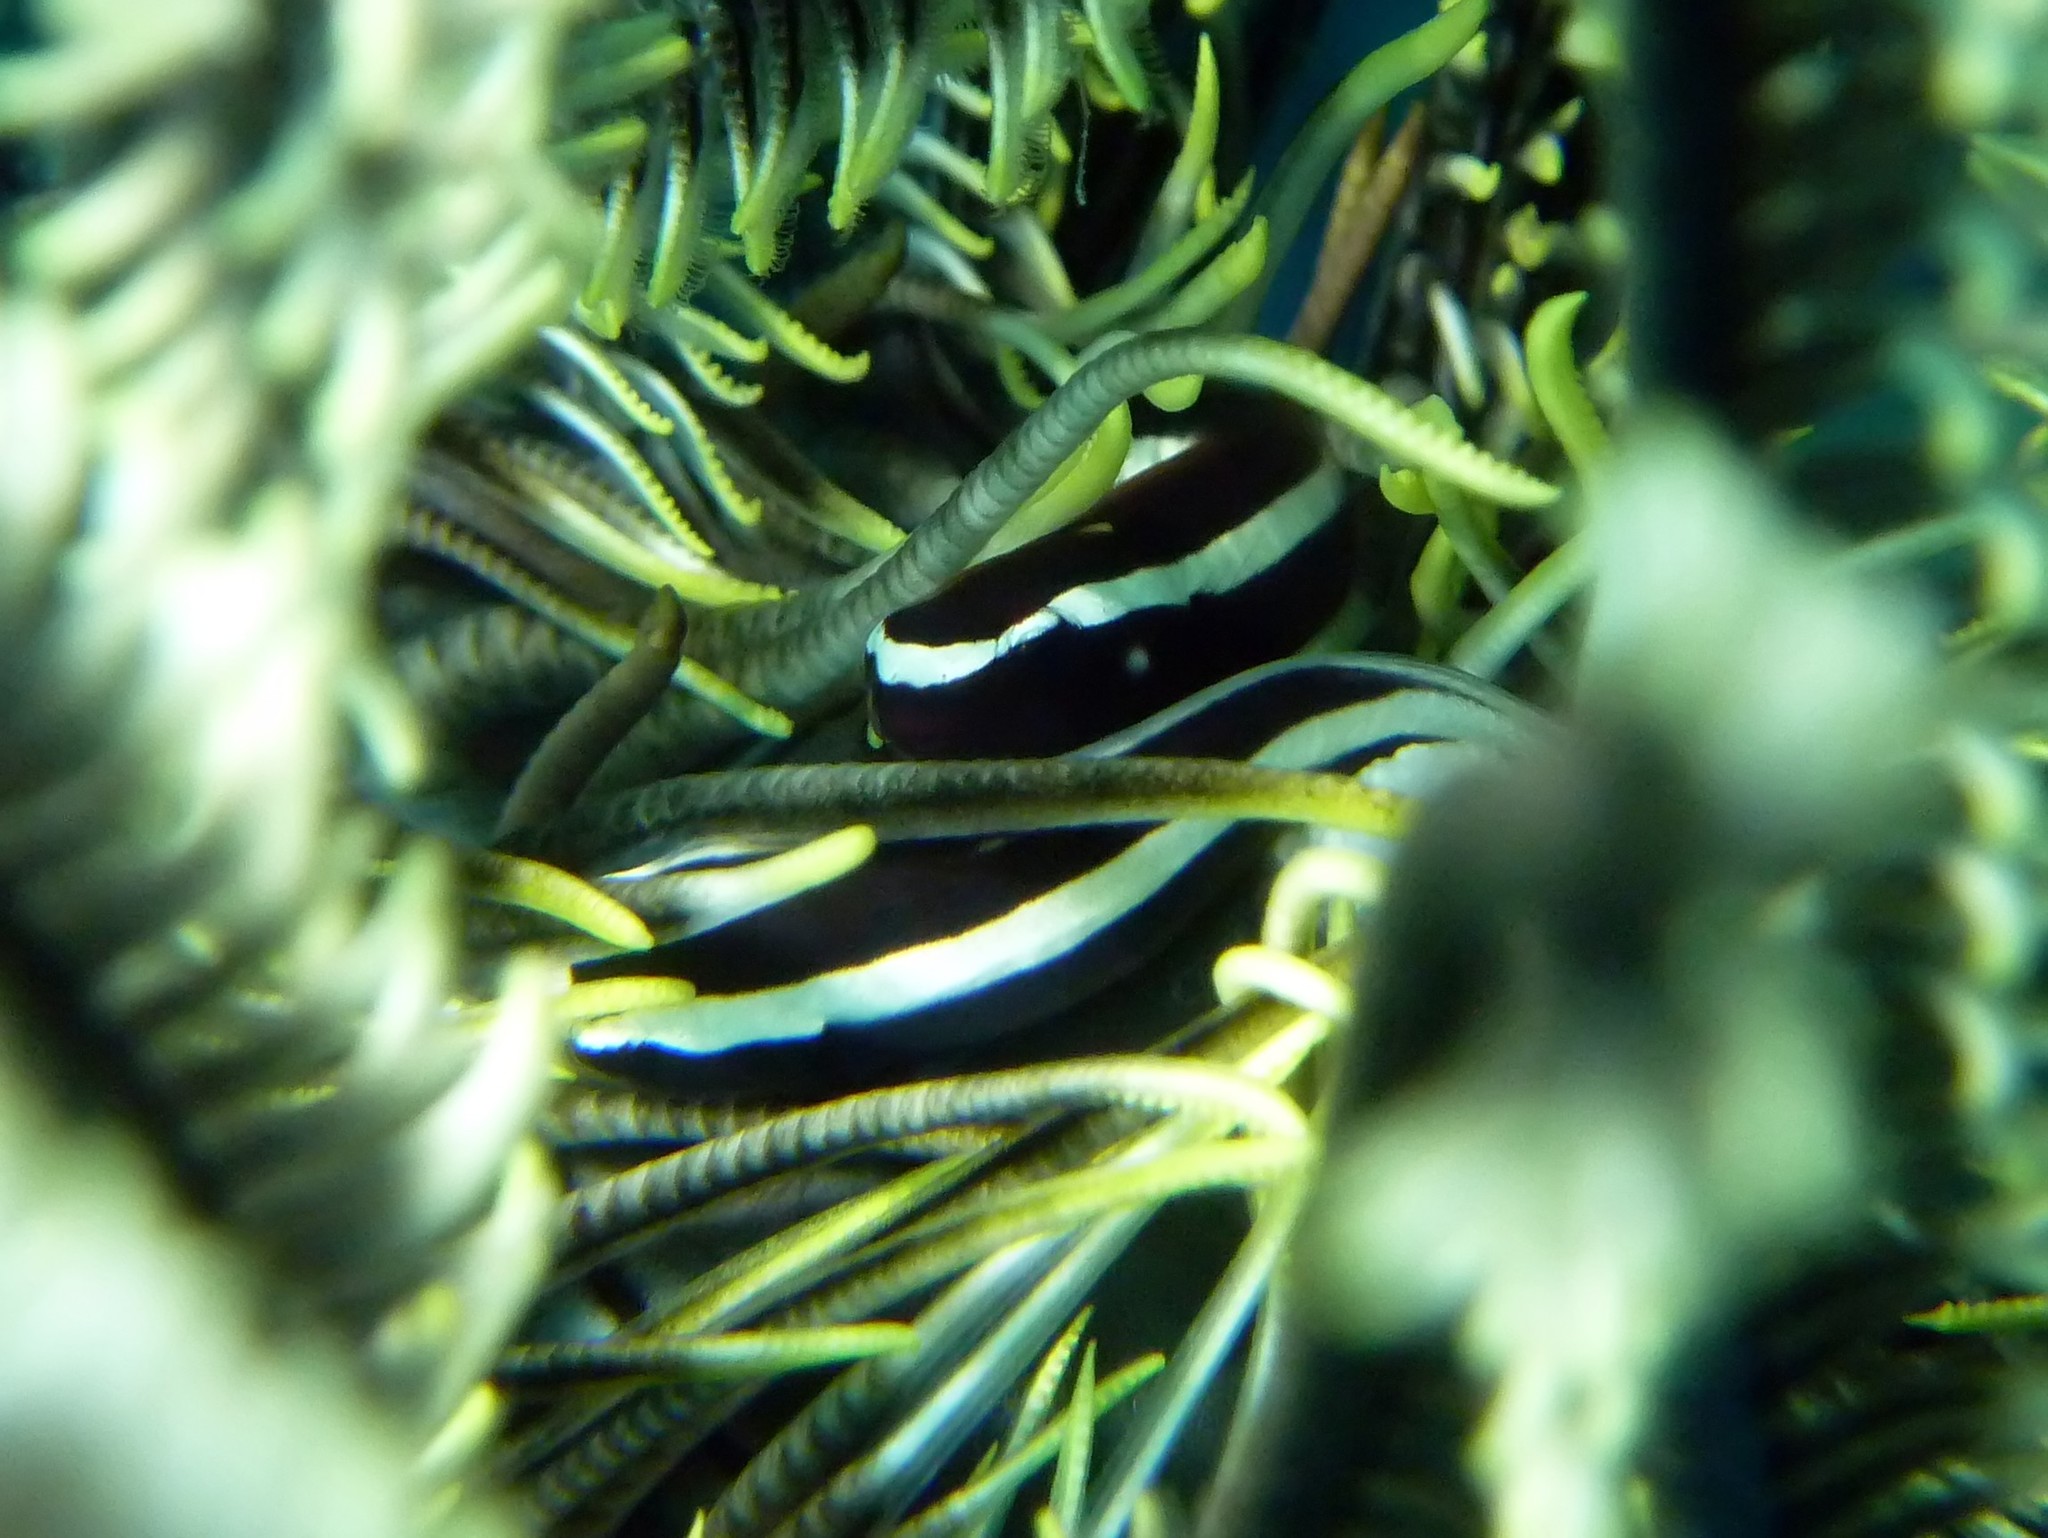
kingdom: Animalia
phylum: Chordata
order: Gobiesociformes
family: Gobiesocidae
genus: Discotrema
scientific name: Discotrema monogrammum
